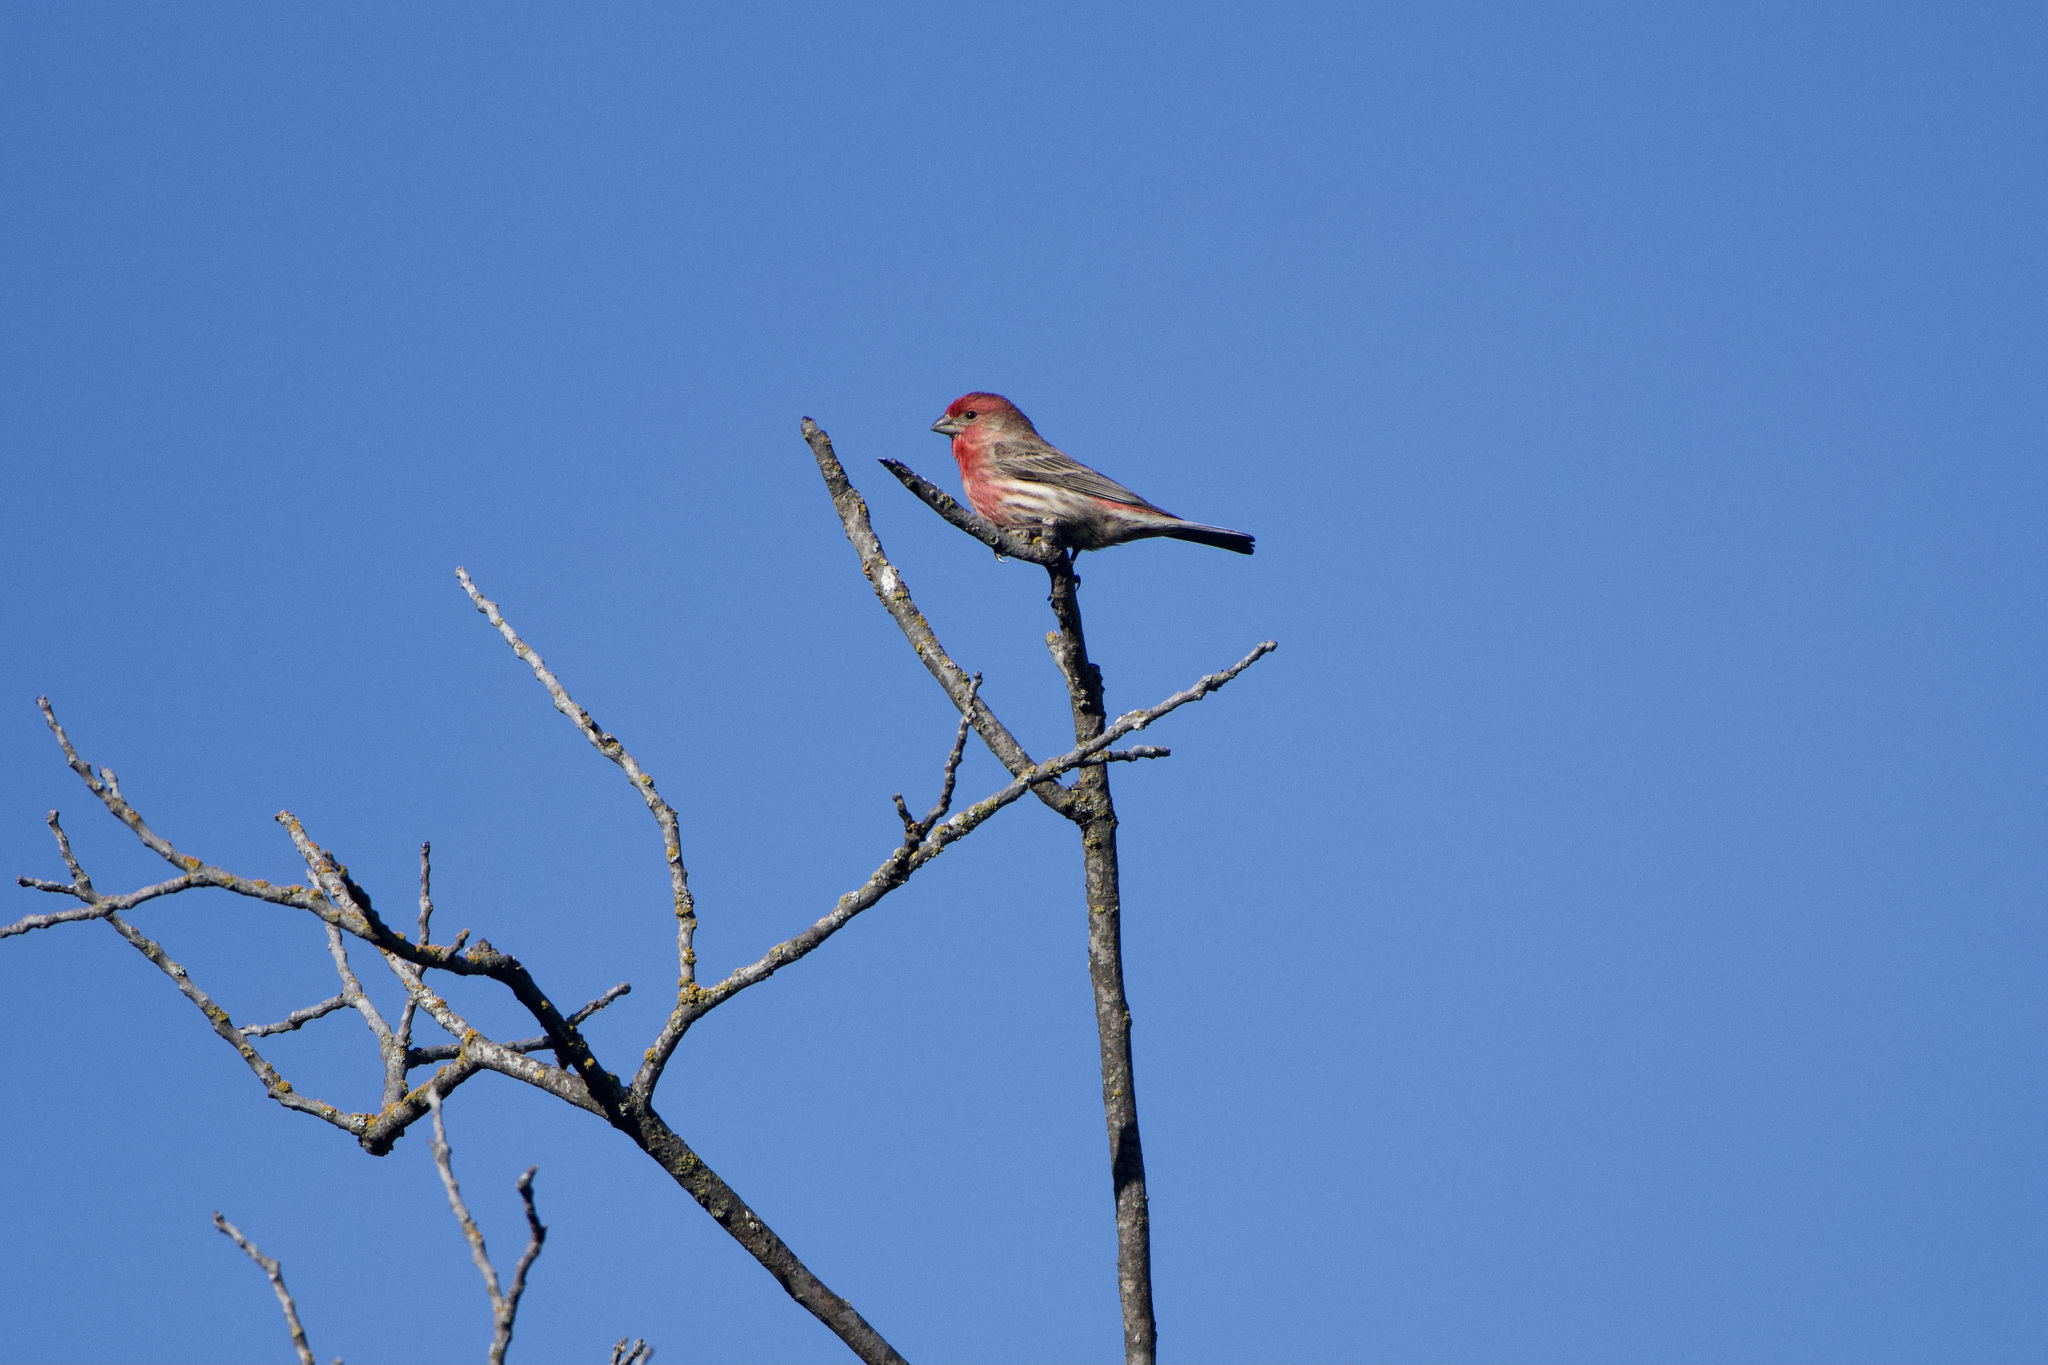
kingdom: Animalia
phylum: Chordata
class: Aves
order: Passeriformes
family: Fringillidae
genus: Haemorhous
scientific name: Haemorhous mexicanus
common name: House finch
